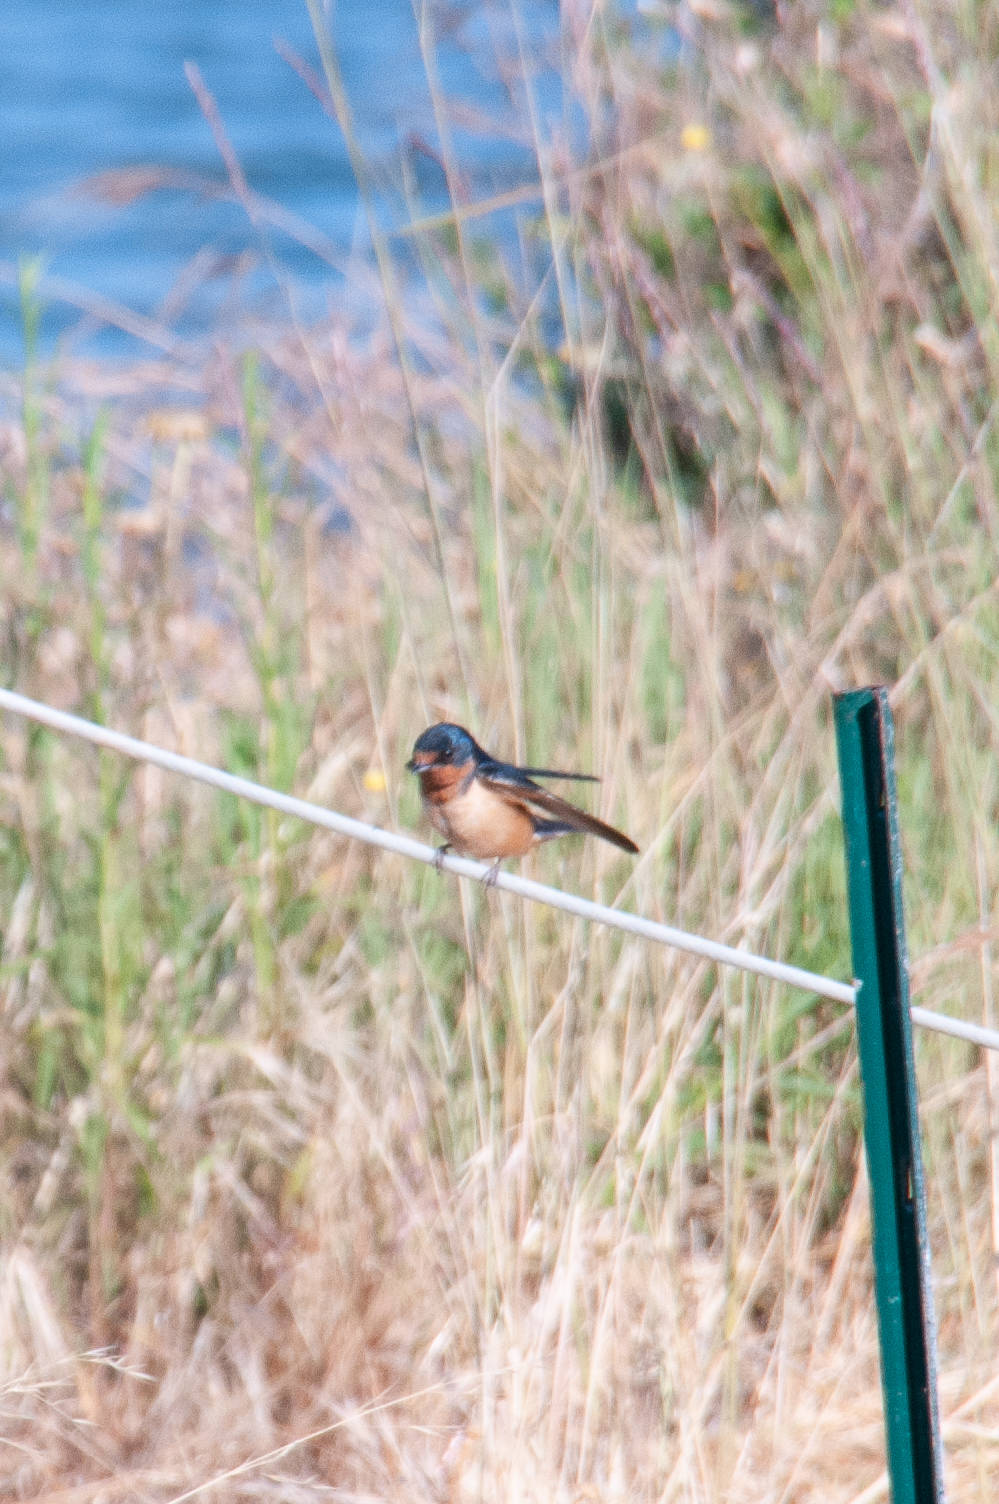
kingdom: Animalia
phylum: Chordata
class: Aves
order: Passeriformes
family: Hirundinidae
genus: Hirundo
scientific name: Hirundo rustica
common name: Barn swallow
